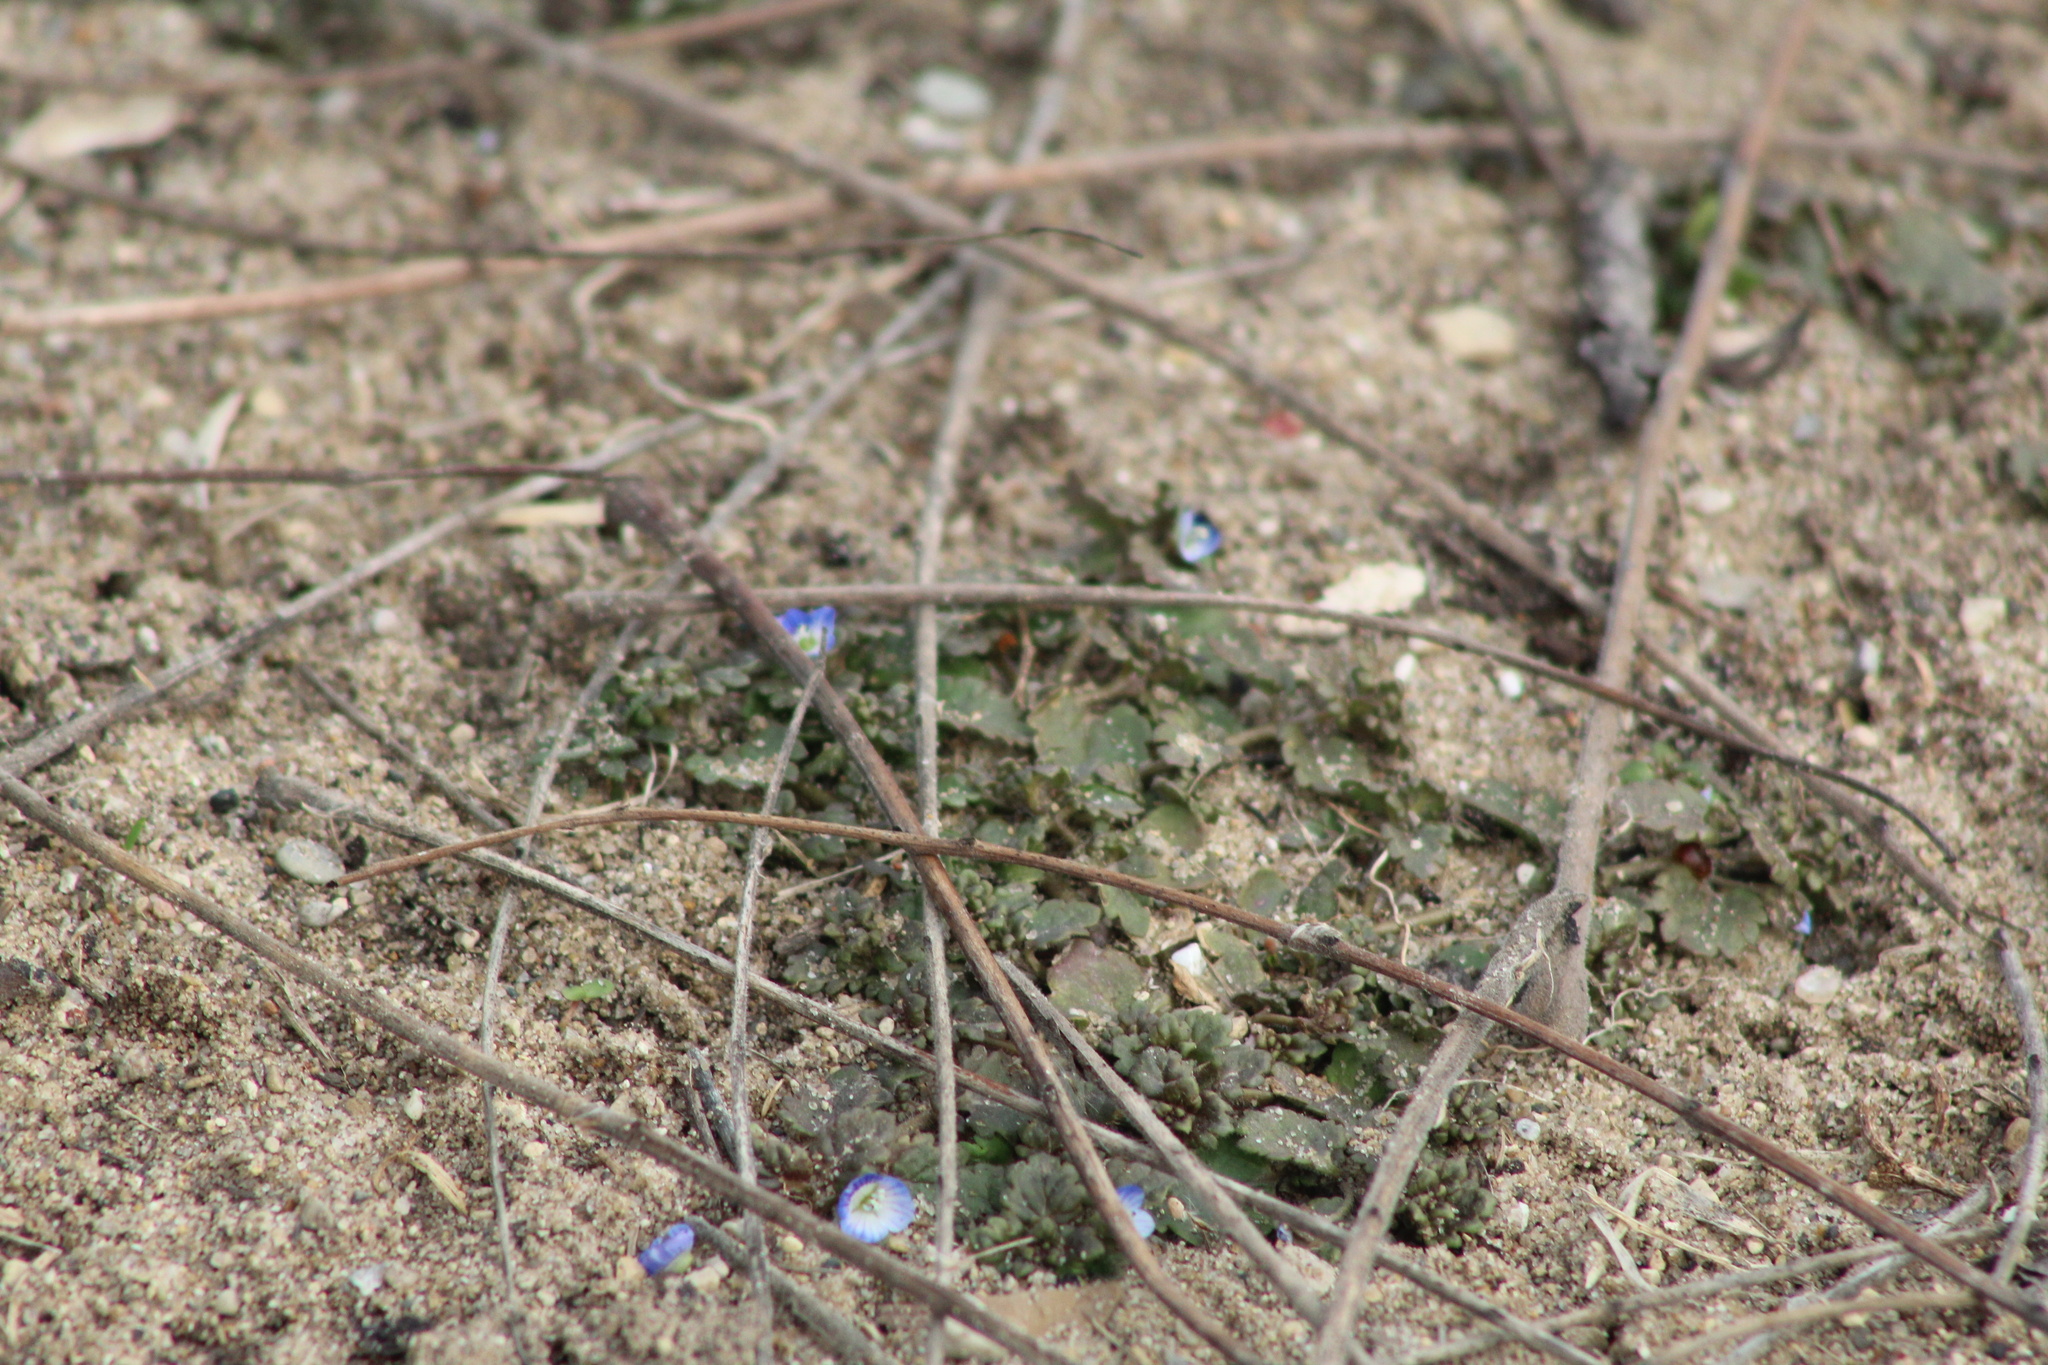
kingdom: Plantae
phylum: Tracheophyta
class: Magnoliopsida
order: Lamiales
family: Plantaginaceae
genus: Veronica
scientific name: Veronica polita
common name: Grey field-speedwell
